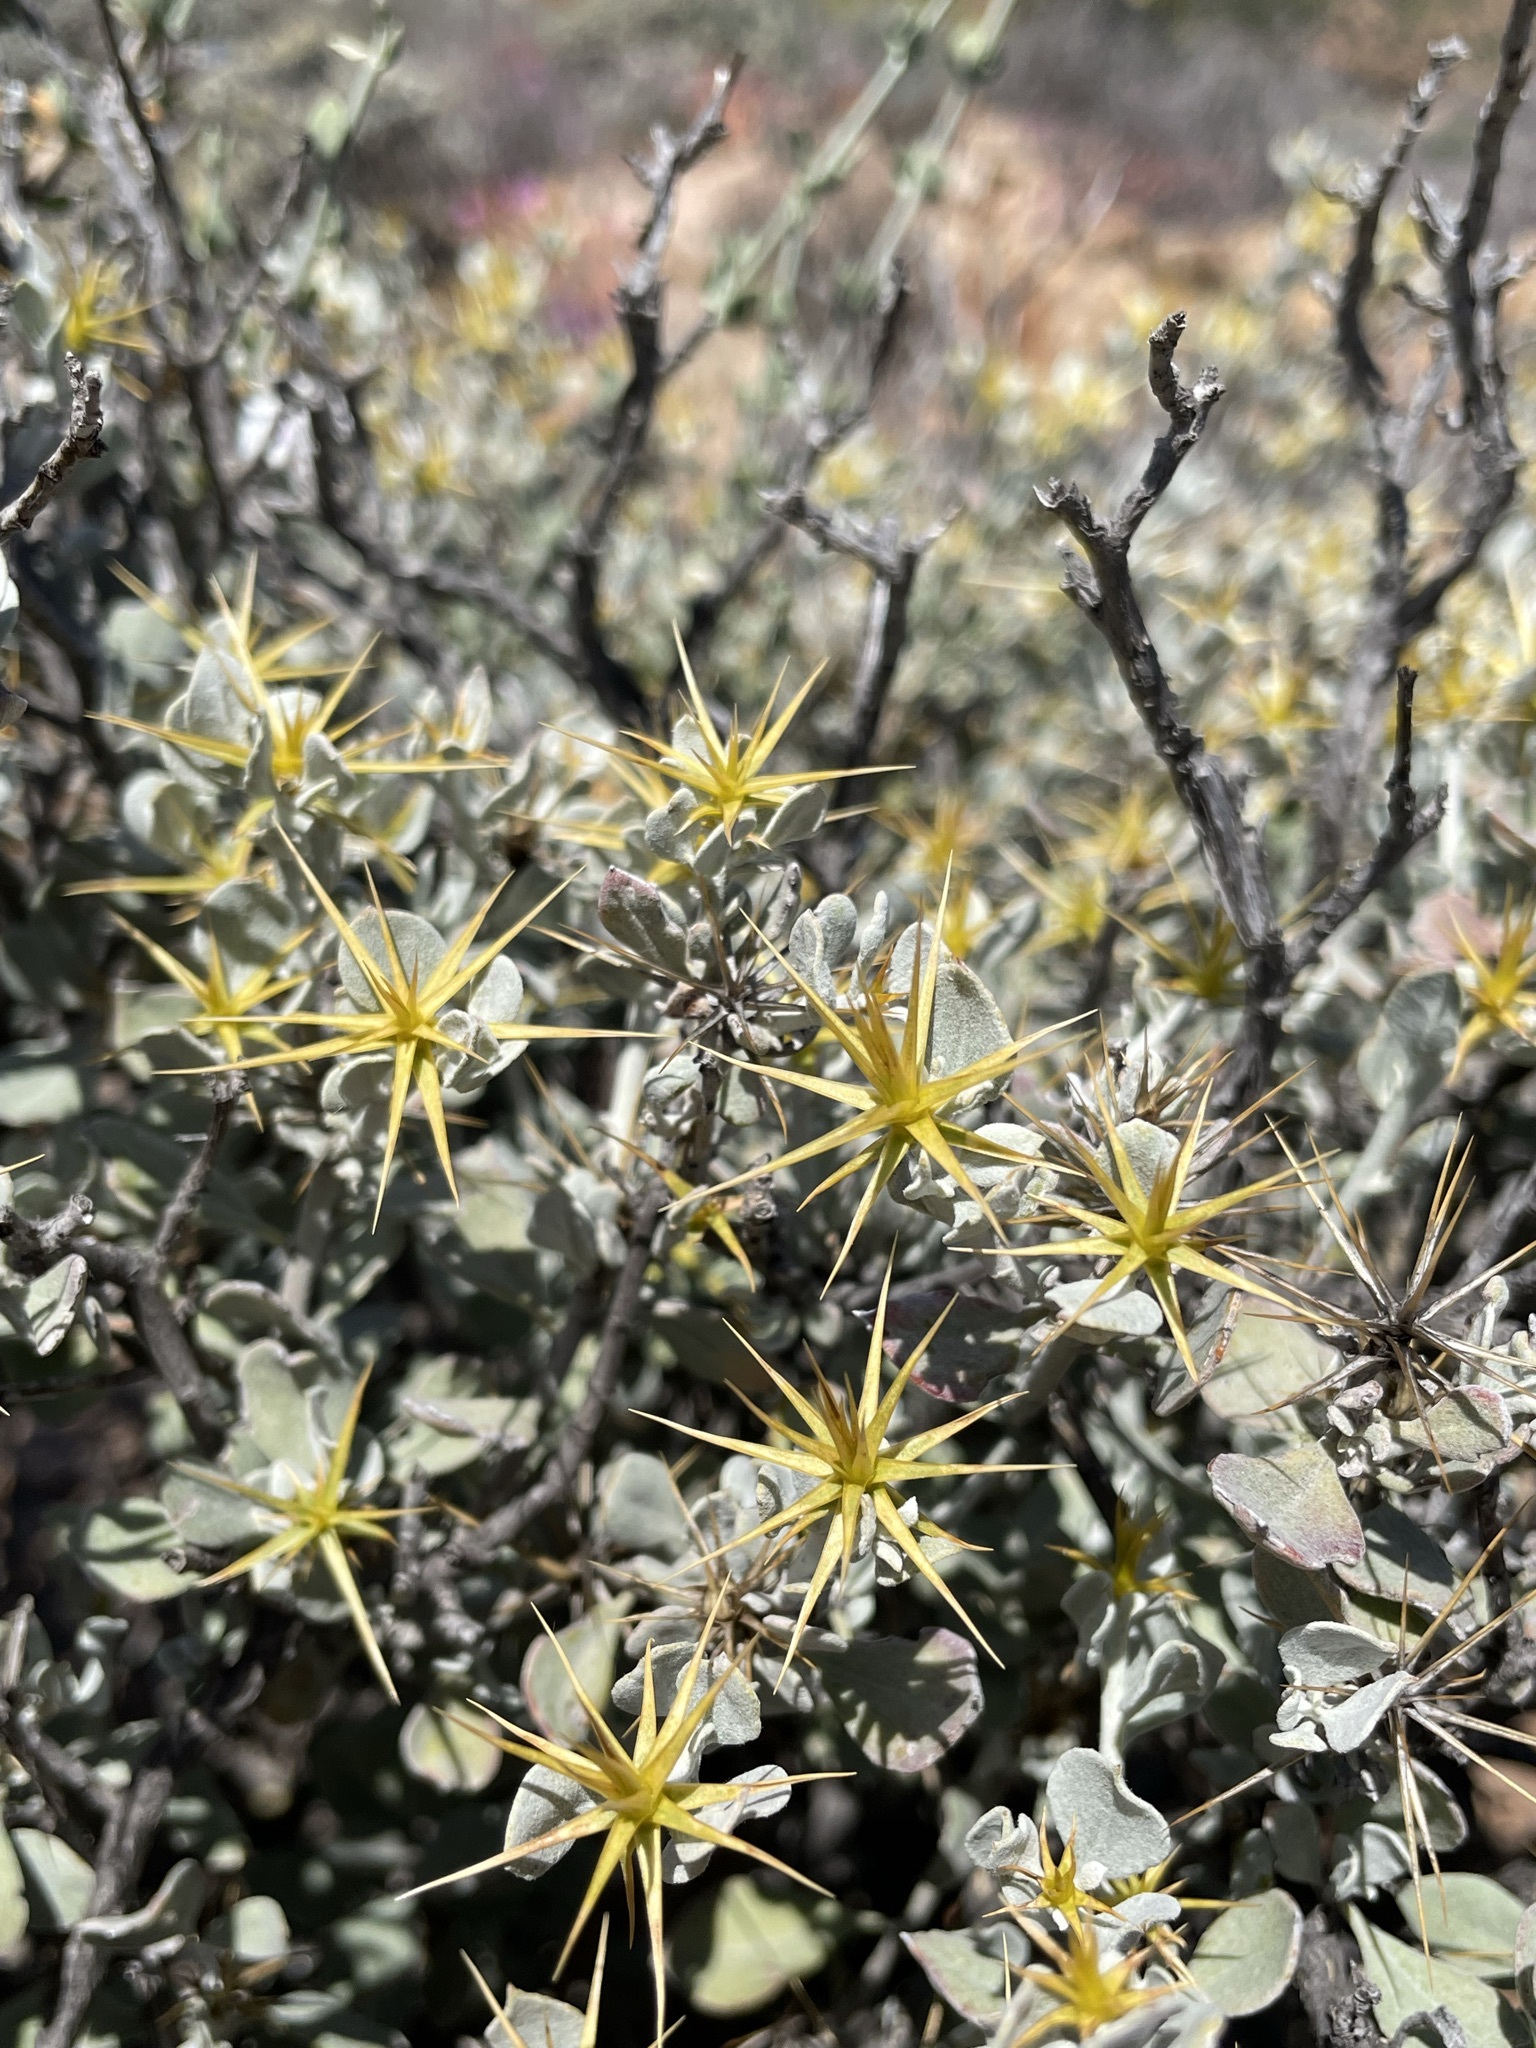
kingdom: Plantae
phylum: Tracheophyta
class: Magnoliopsida
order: Asterales
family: Asteraceae
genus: Macledium
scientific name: Macledium spinosum
